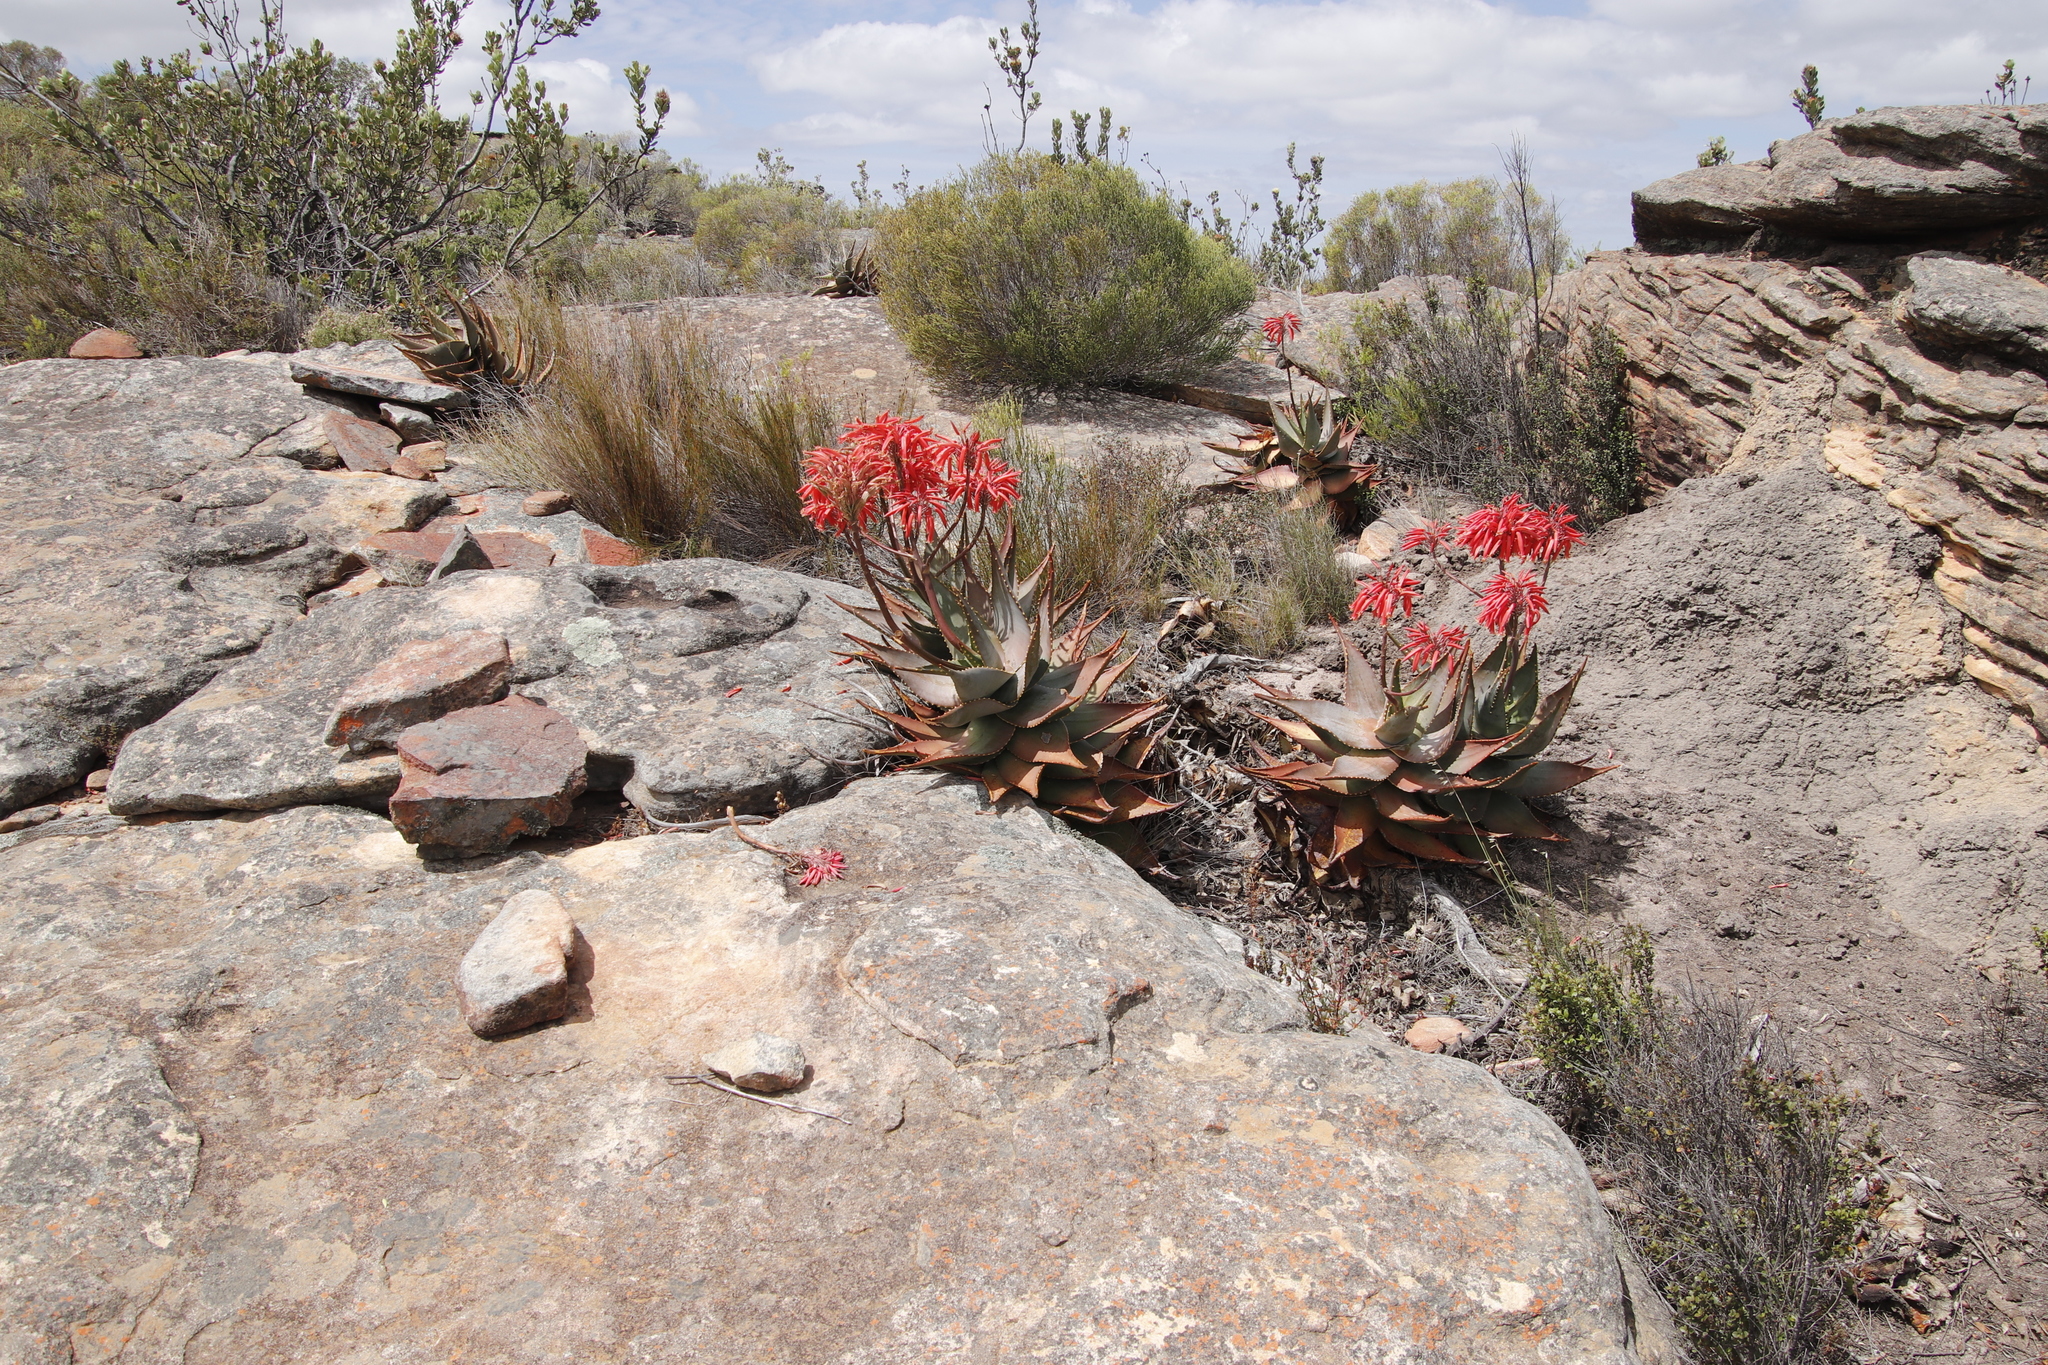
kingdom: Plantae
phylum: Tracheophyta
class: Liliopsida
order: Asparagales
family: Asphodelaceae
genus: Aloe
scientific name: Aloe perfoliata
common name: Mitra aloe
